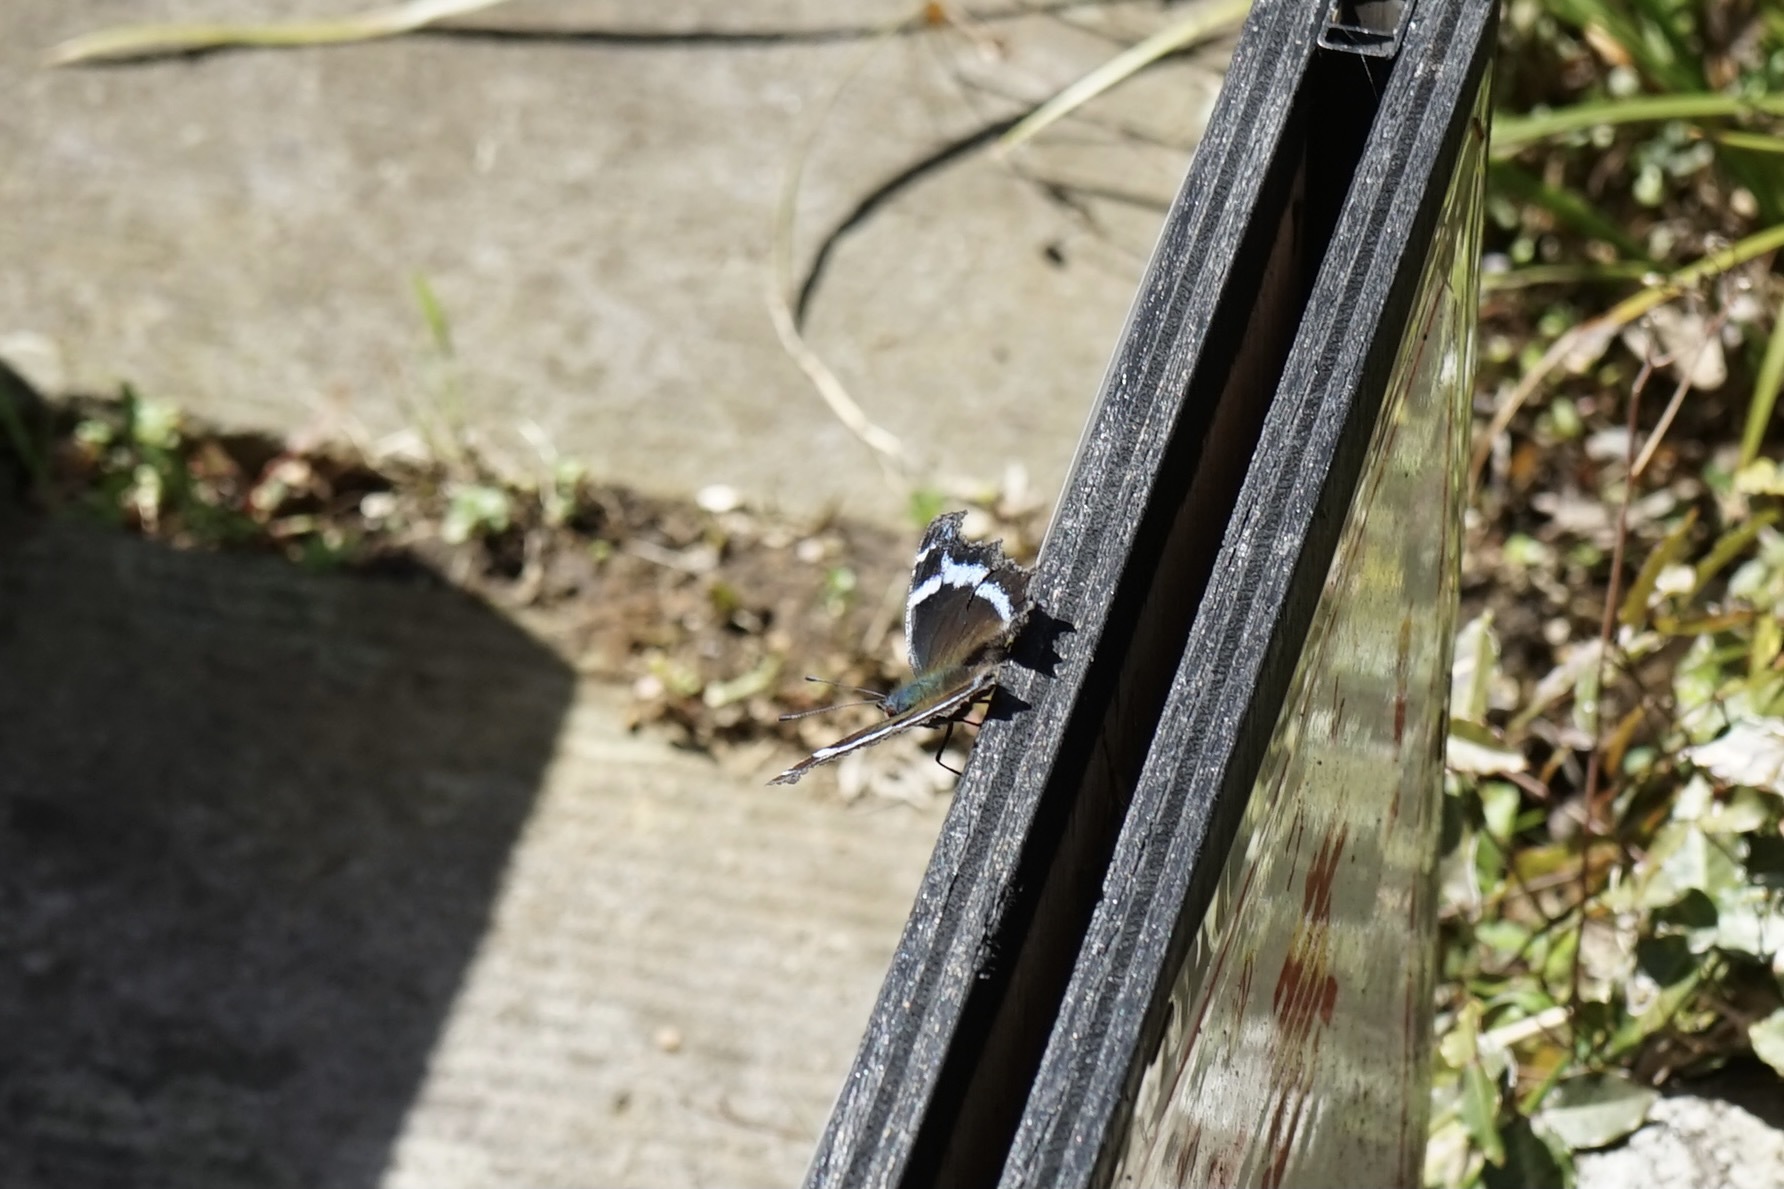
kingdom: Animalia
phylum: Arthropoda
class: Insecta
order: Lepidoptera
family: Nymphalidae
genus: Vanessa
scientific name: Vanessa Kaniska canace
